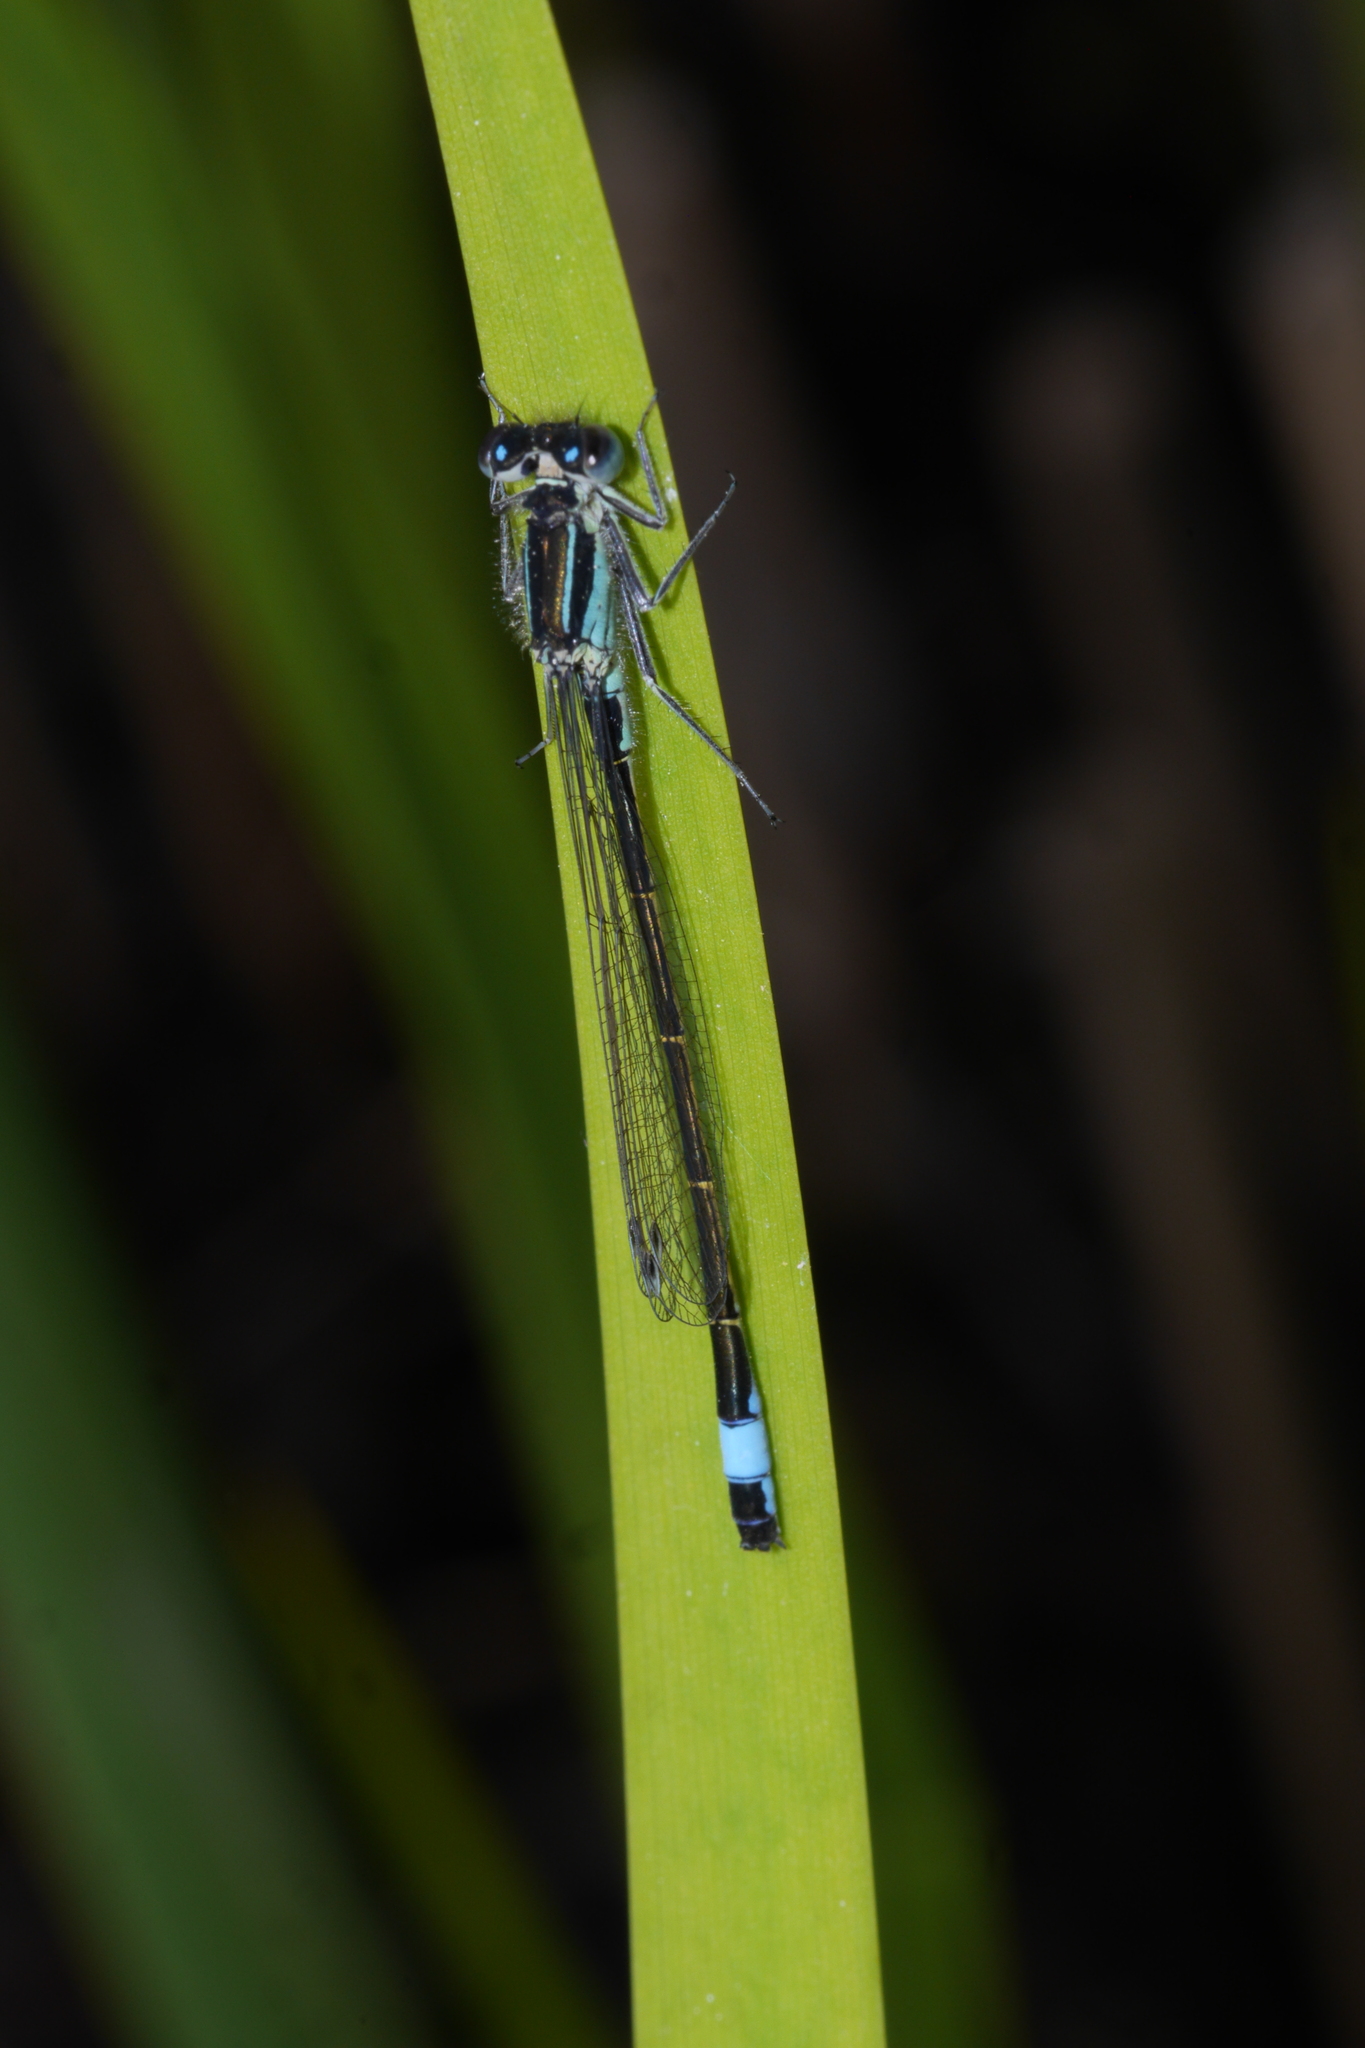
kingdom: Animalia
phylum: Arthropoda
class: Insecta
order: Odonata
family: Coenagrionidae
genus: Ischnura
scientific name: Ischnura elegans
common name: Blue-tailed damselfly
